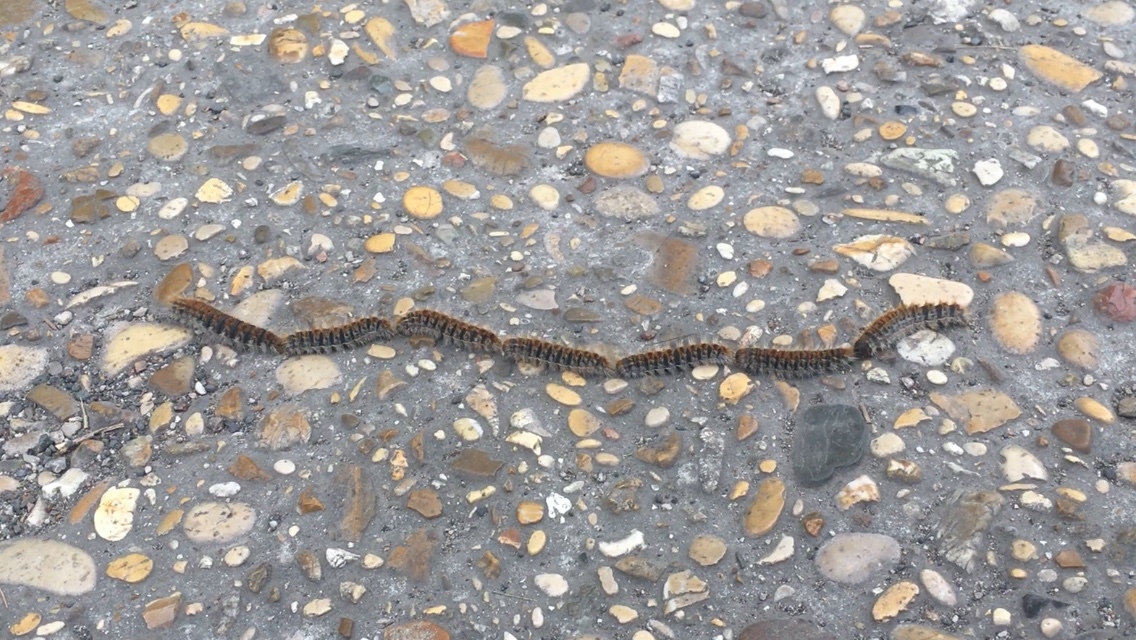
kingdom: Animalia
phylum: Arthropoda
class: Insecta
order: Lepidoptera
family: Notodontidae
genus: Thaumetopoea
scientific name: Thaumetopoea pityocampa
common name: Pine processionary
